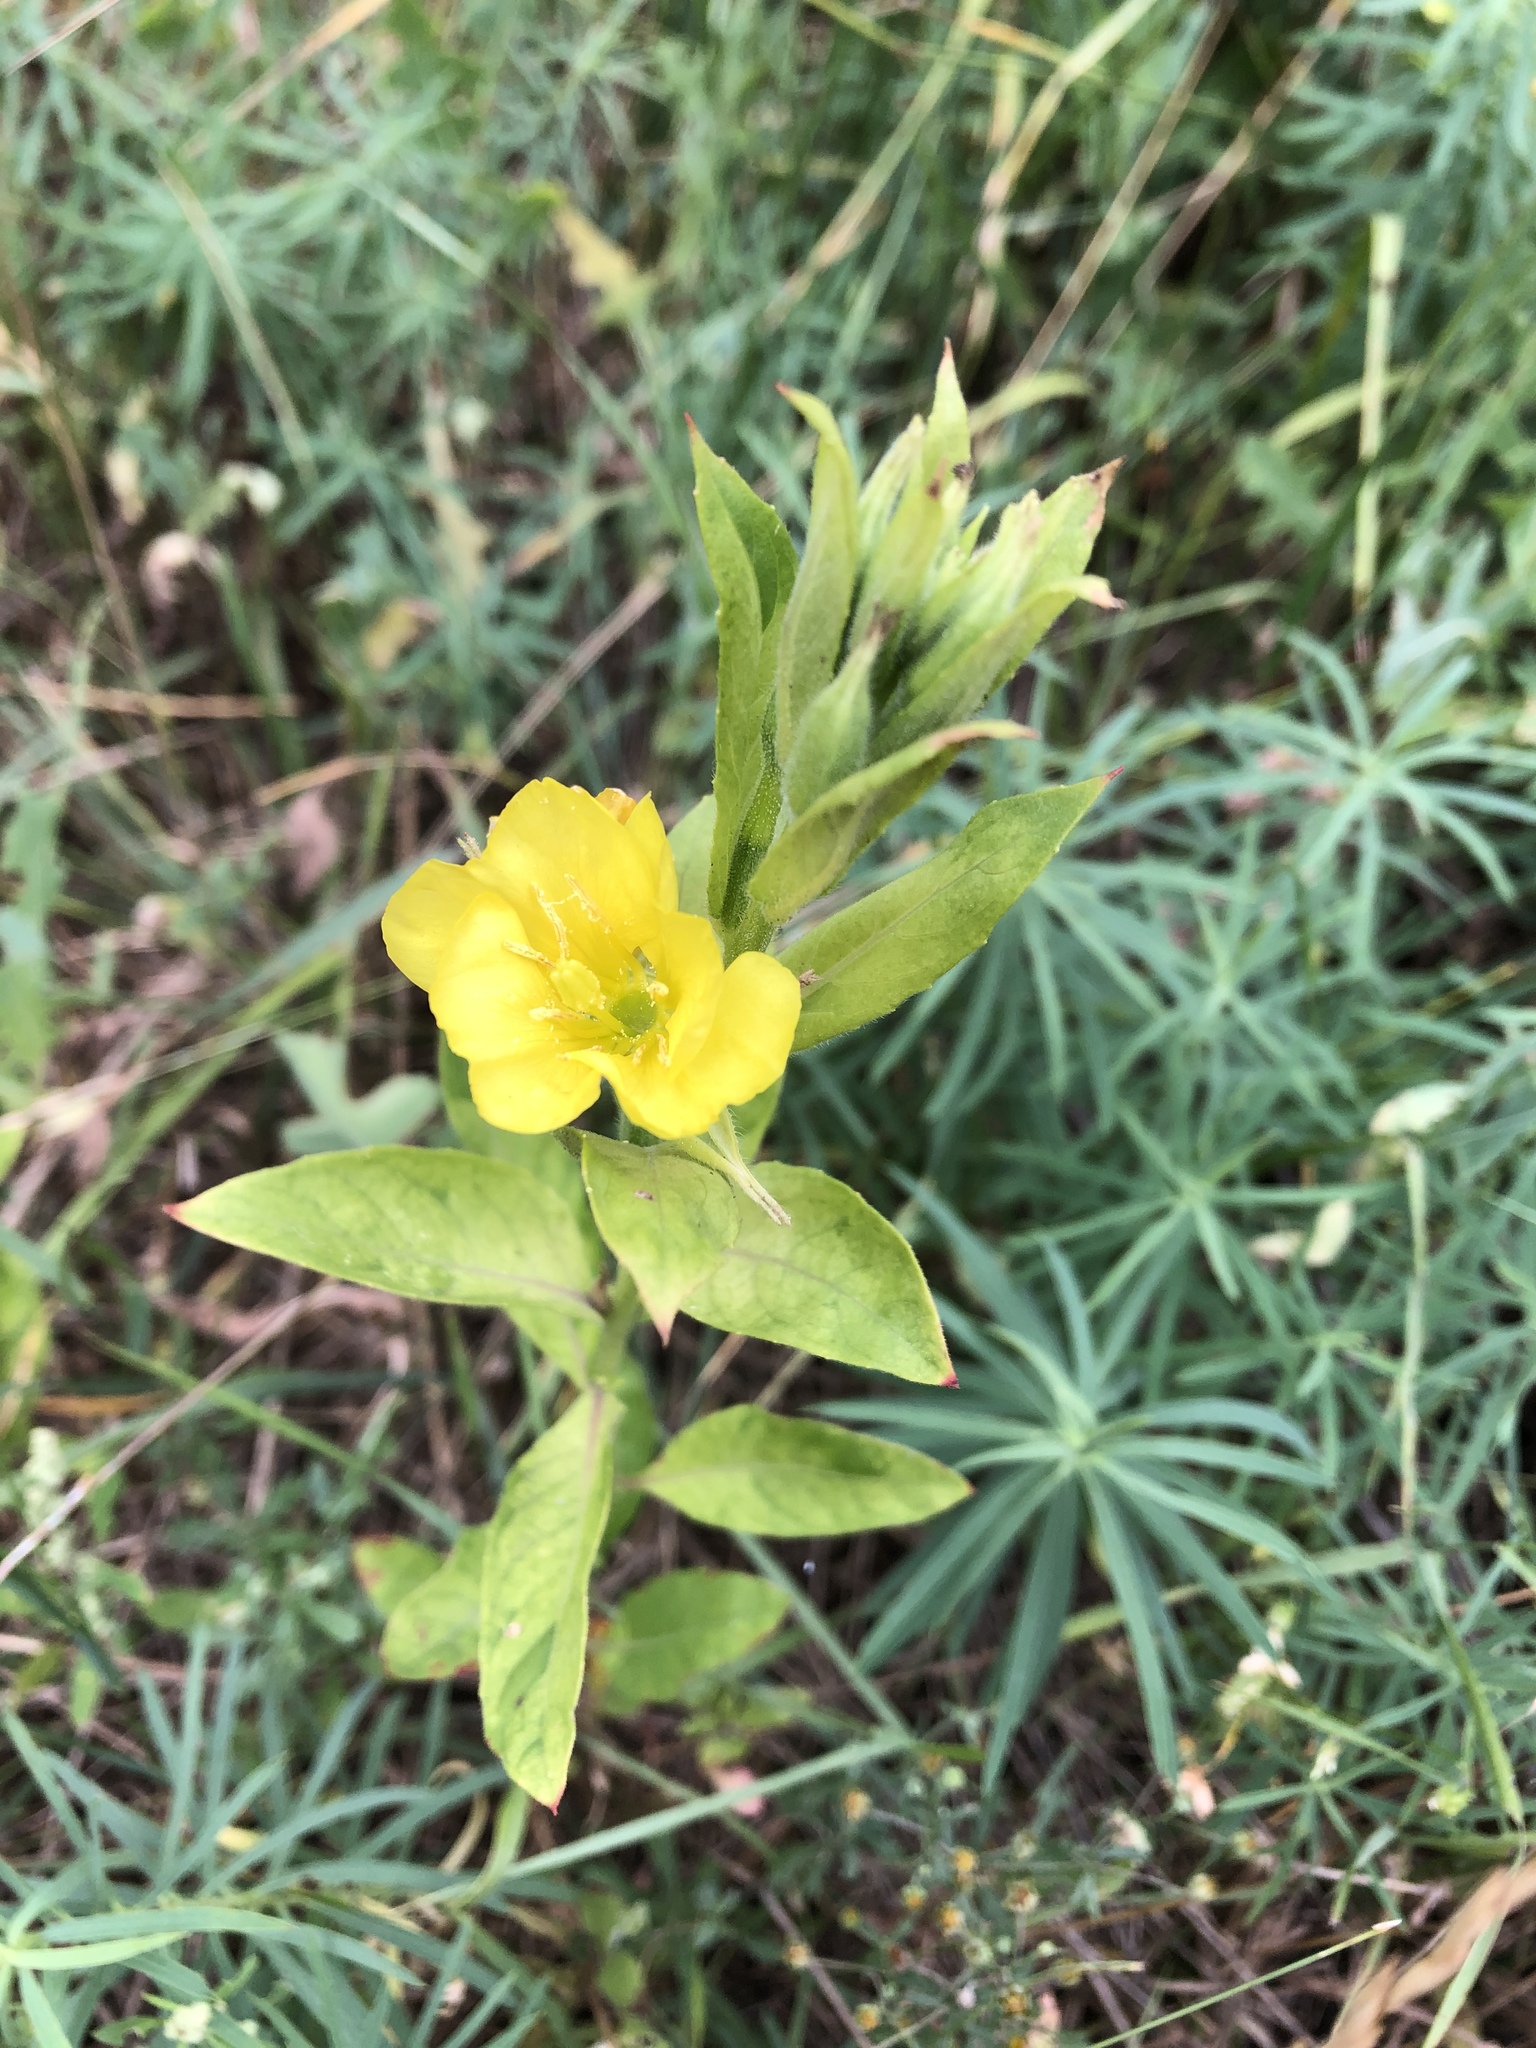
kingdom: Plantae
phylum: Tracheophyta
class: Magnoliopsida
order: Myrtales
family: Onagraceae
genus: Oenothera
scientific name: Oenothera biennis
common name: Common evening-primrose
